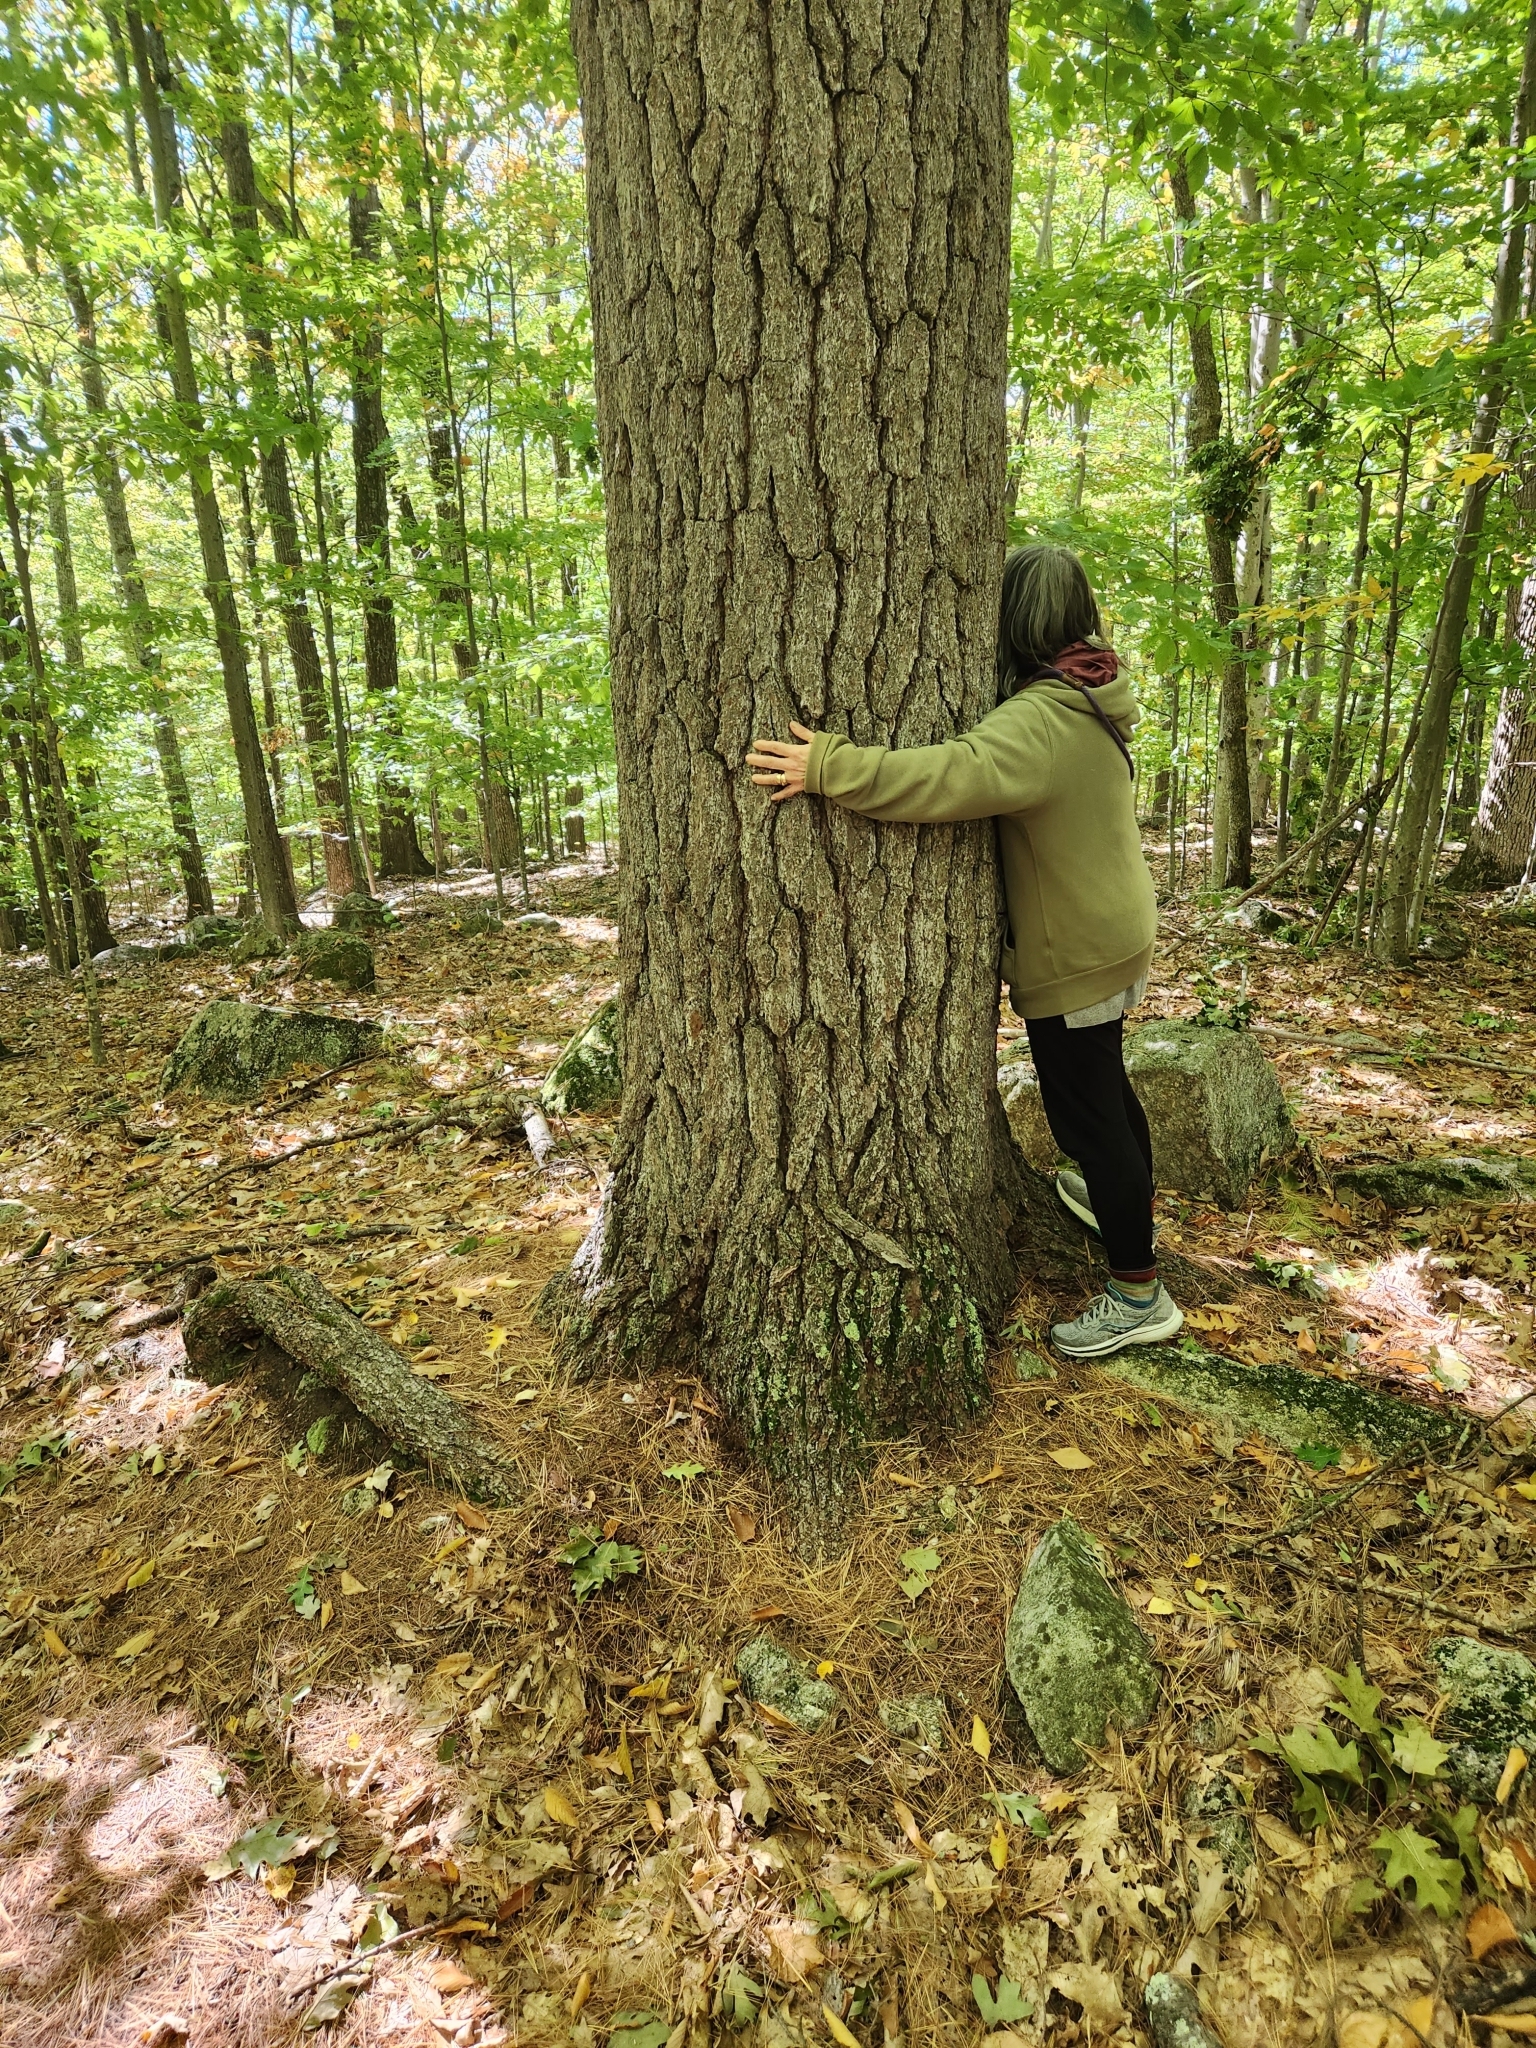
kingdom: Plantae
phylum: Tracheophyta
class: Pinopsida
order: Pinales
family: Pinaceae
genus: Pinus
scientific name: Pinus strobus
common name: Weymouth pine
